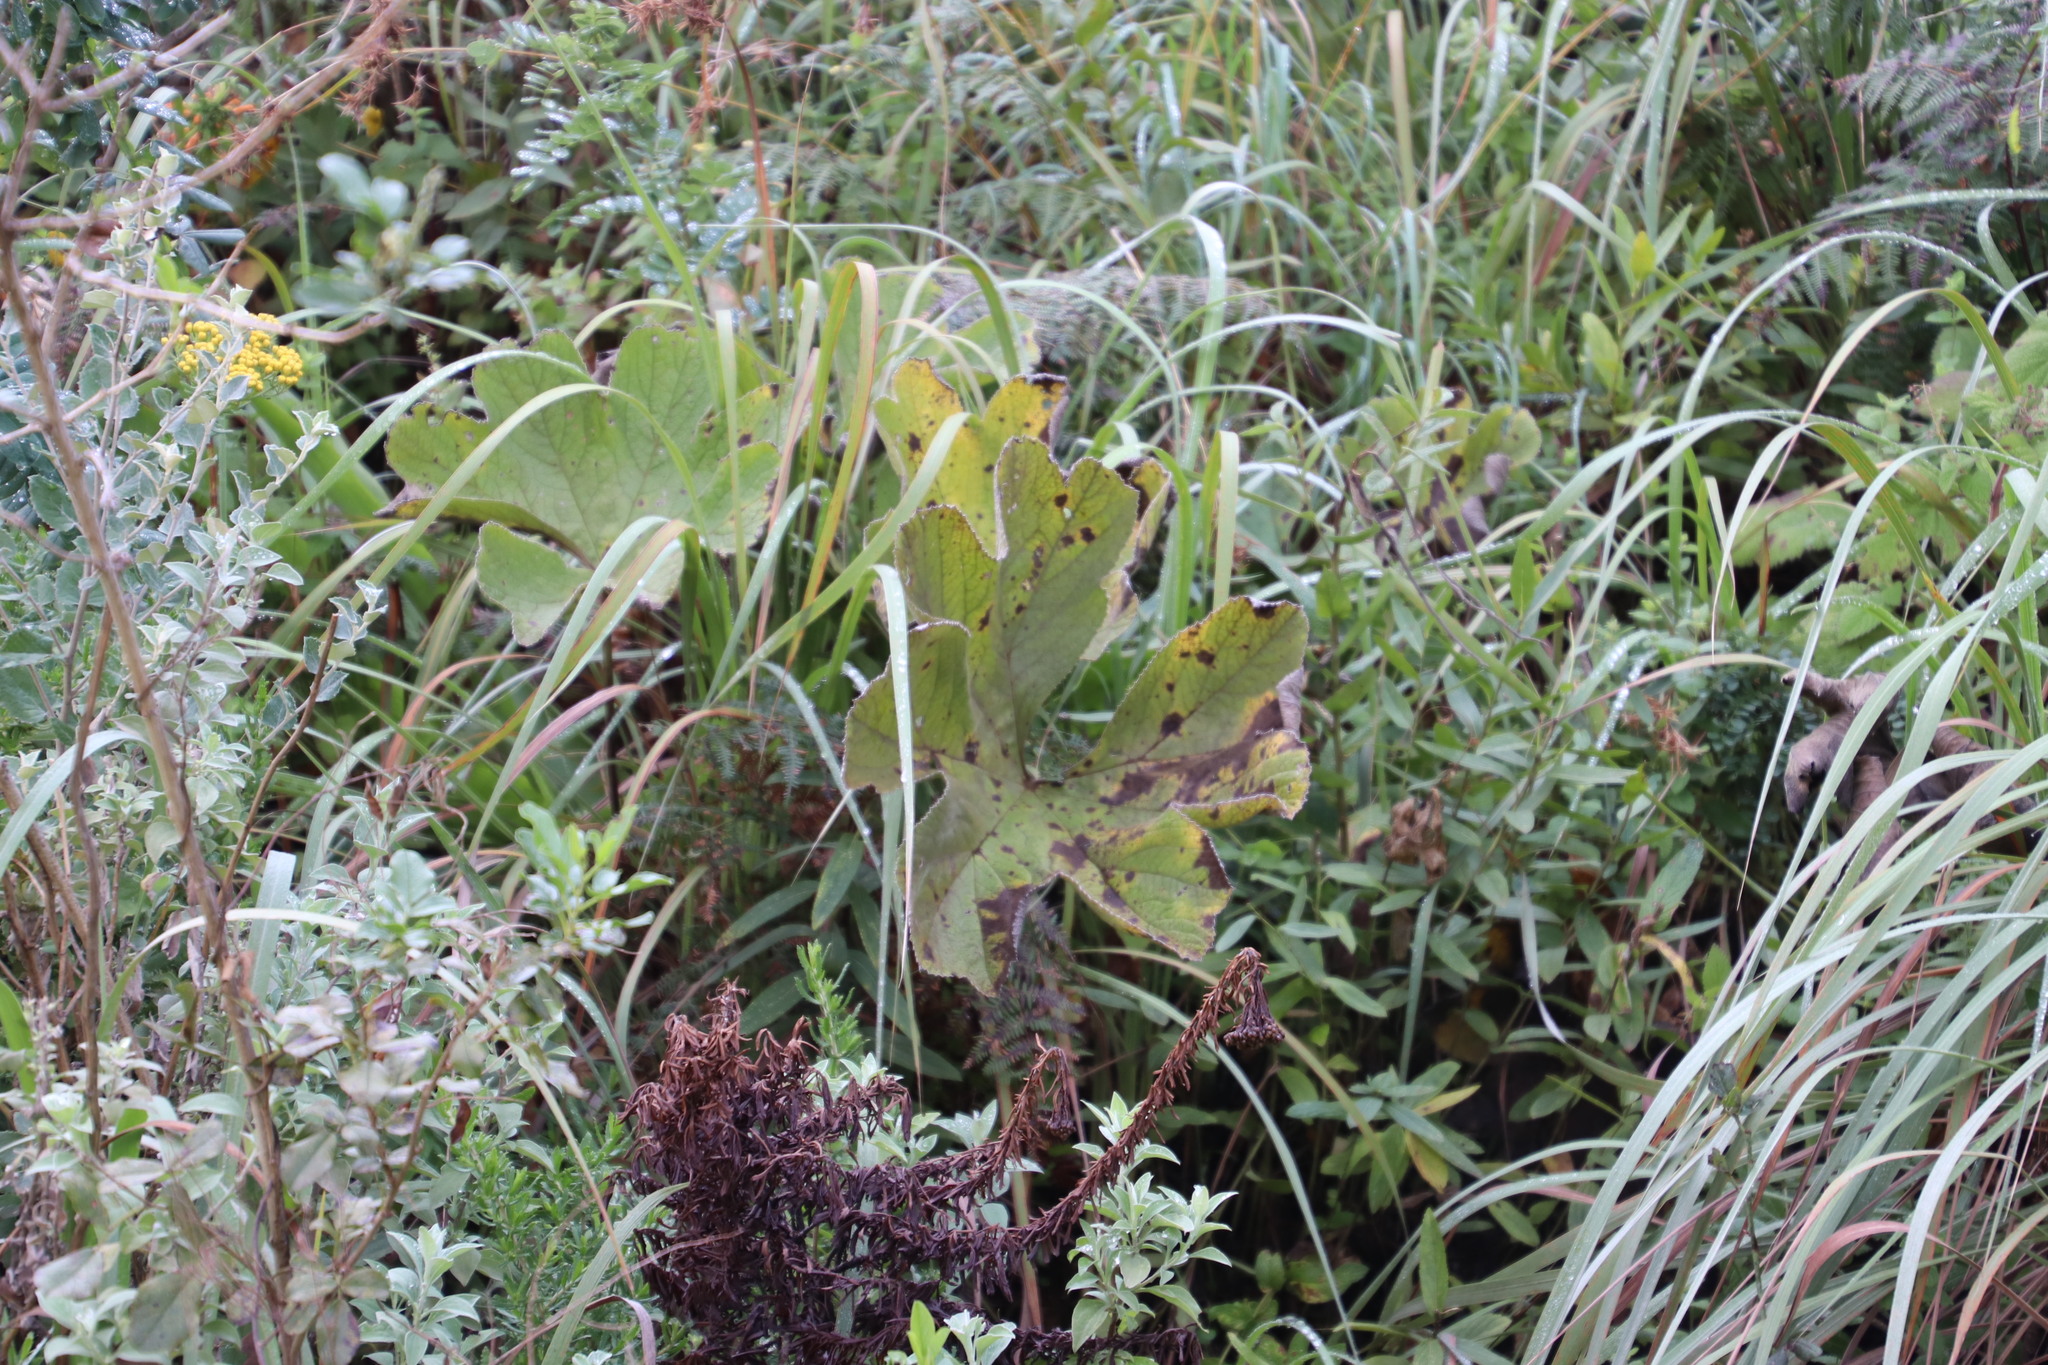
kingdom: Plantae
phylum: Tracheophyta
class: Magnoliopsida
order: Ranunculales
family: Ranunculaceae
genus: Knowltonia
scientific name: Knowltonia fanninii
